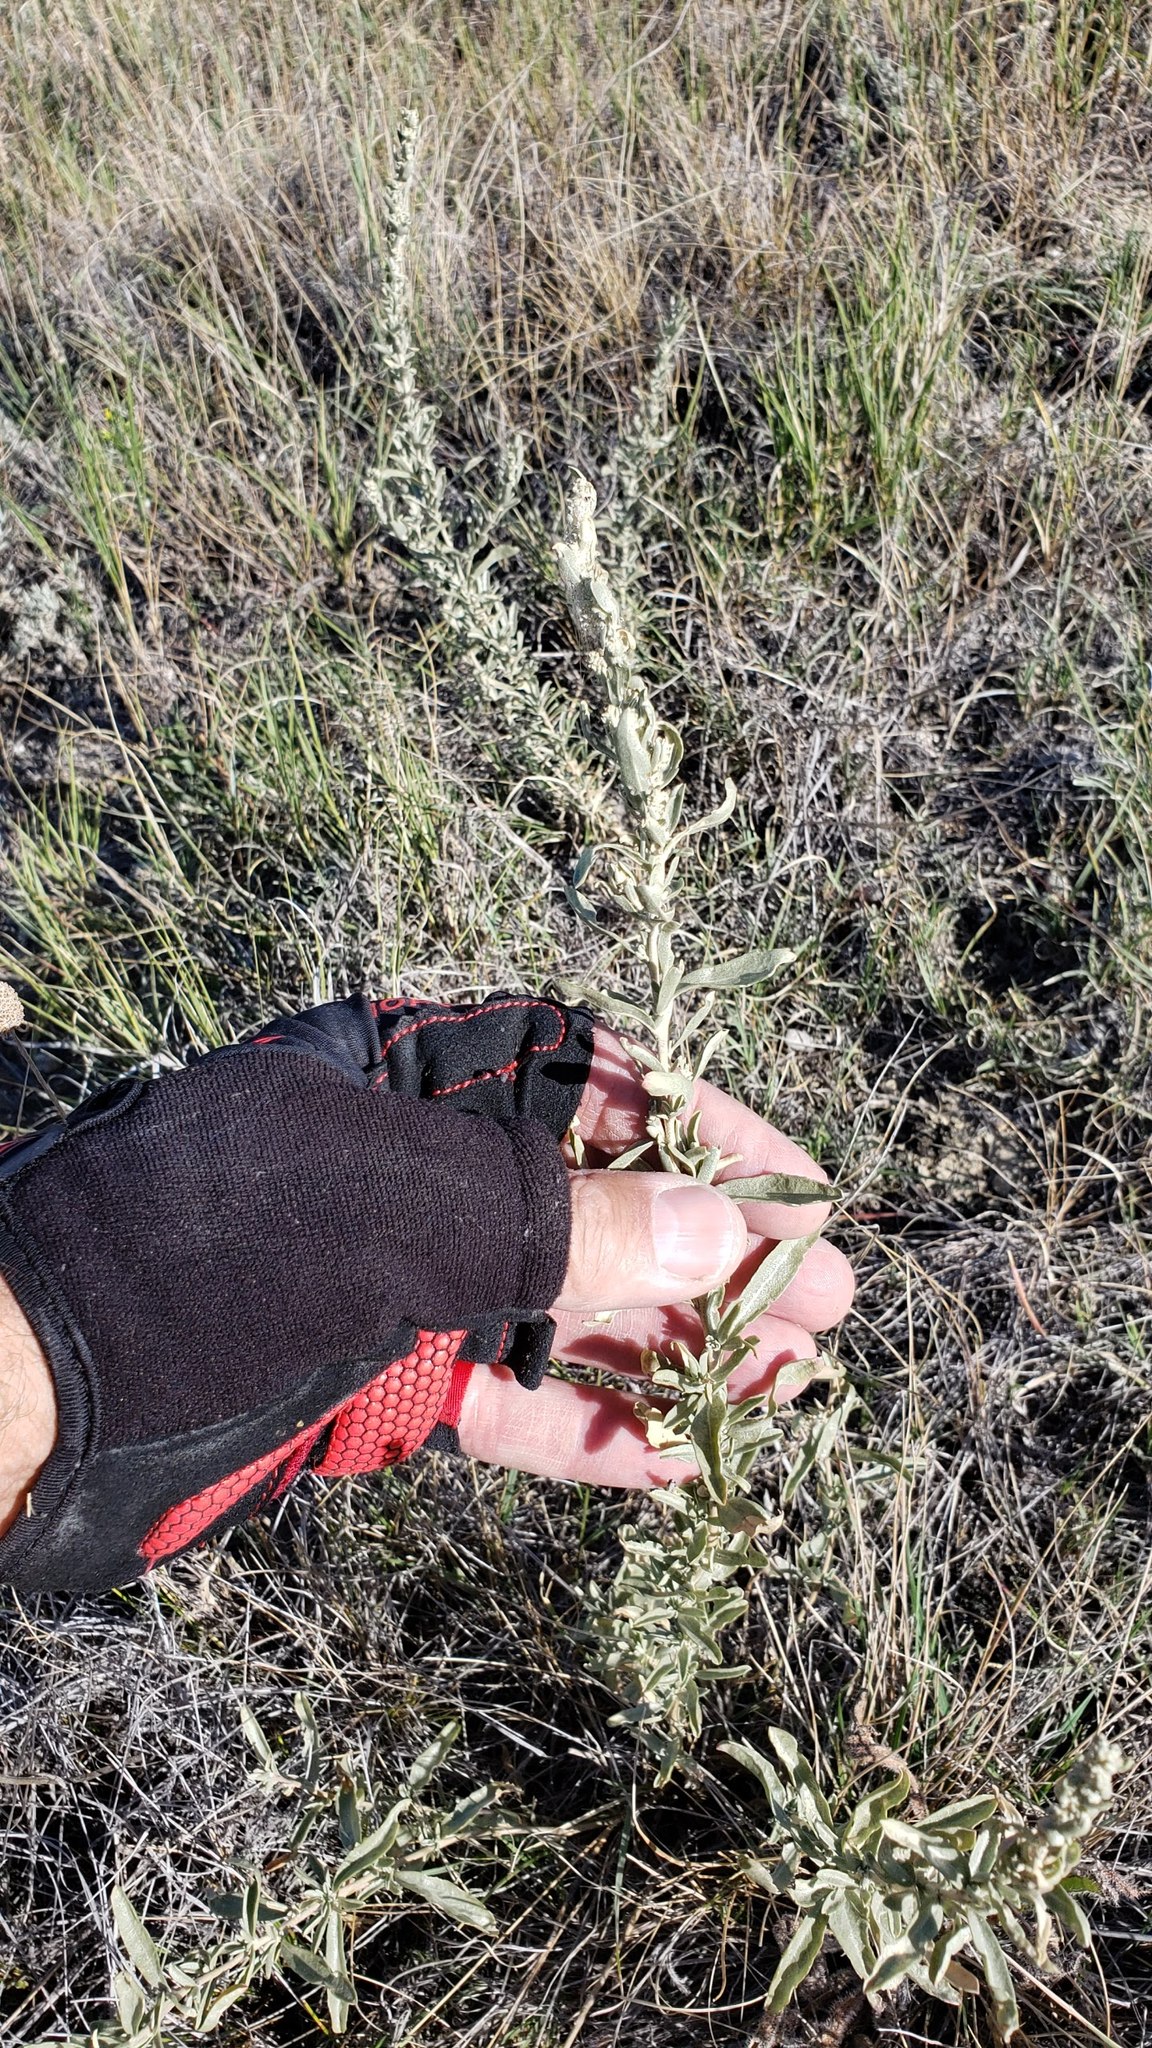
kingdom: Plantae
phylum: Tracheophyta
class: Magnoliopsida
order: Asterales
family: Asteraceae
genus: Artemisia
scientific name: Artemisia ludoviciana
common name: Western mugwort
